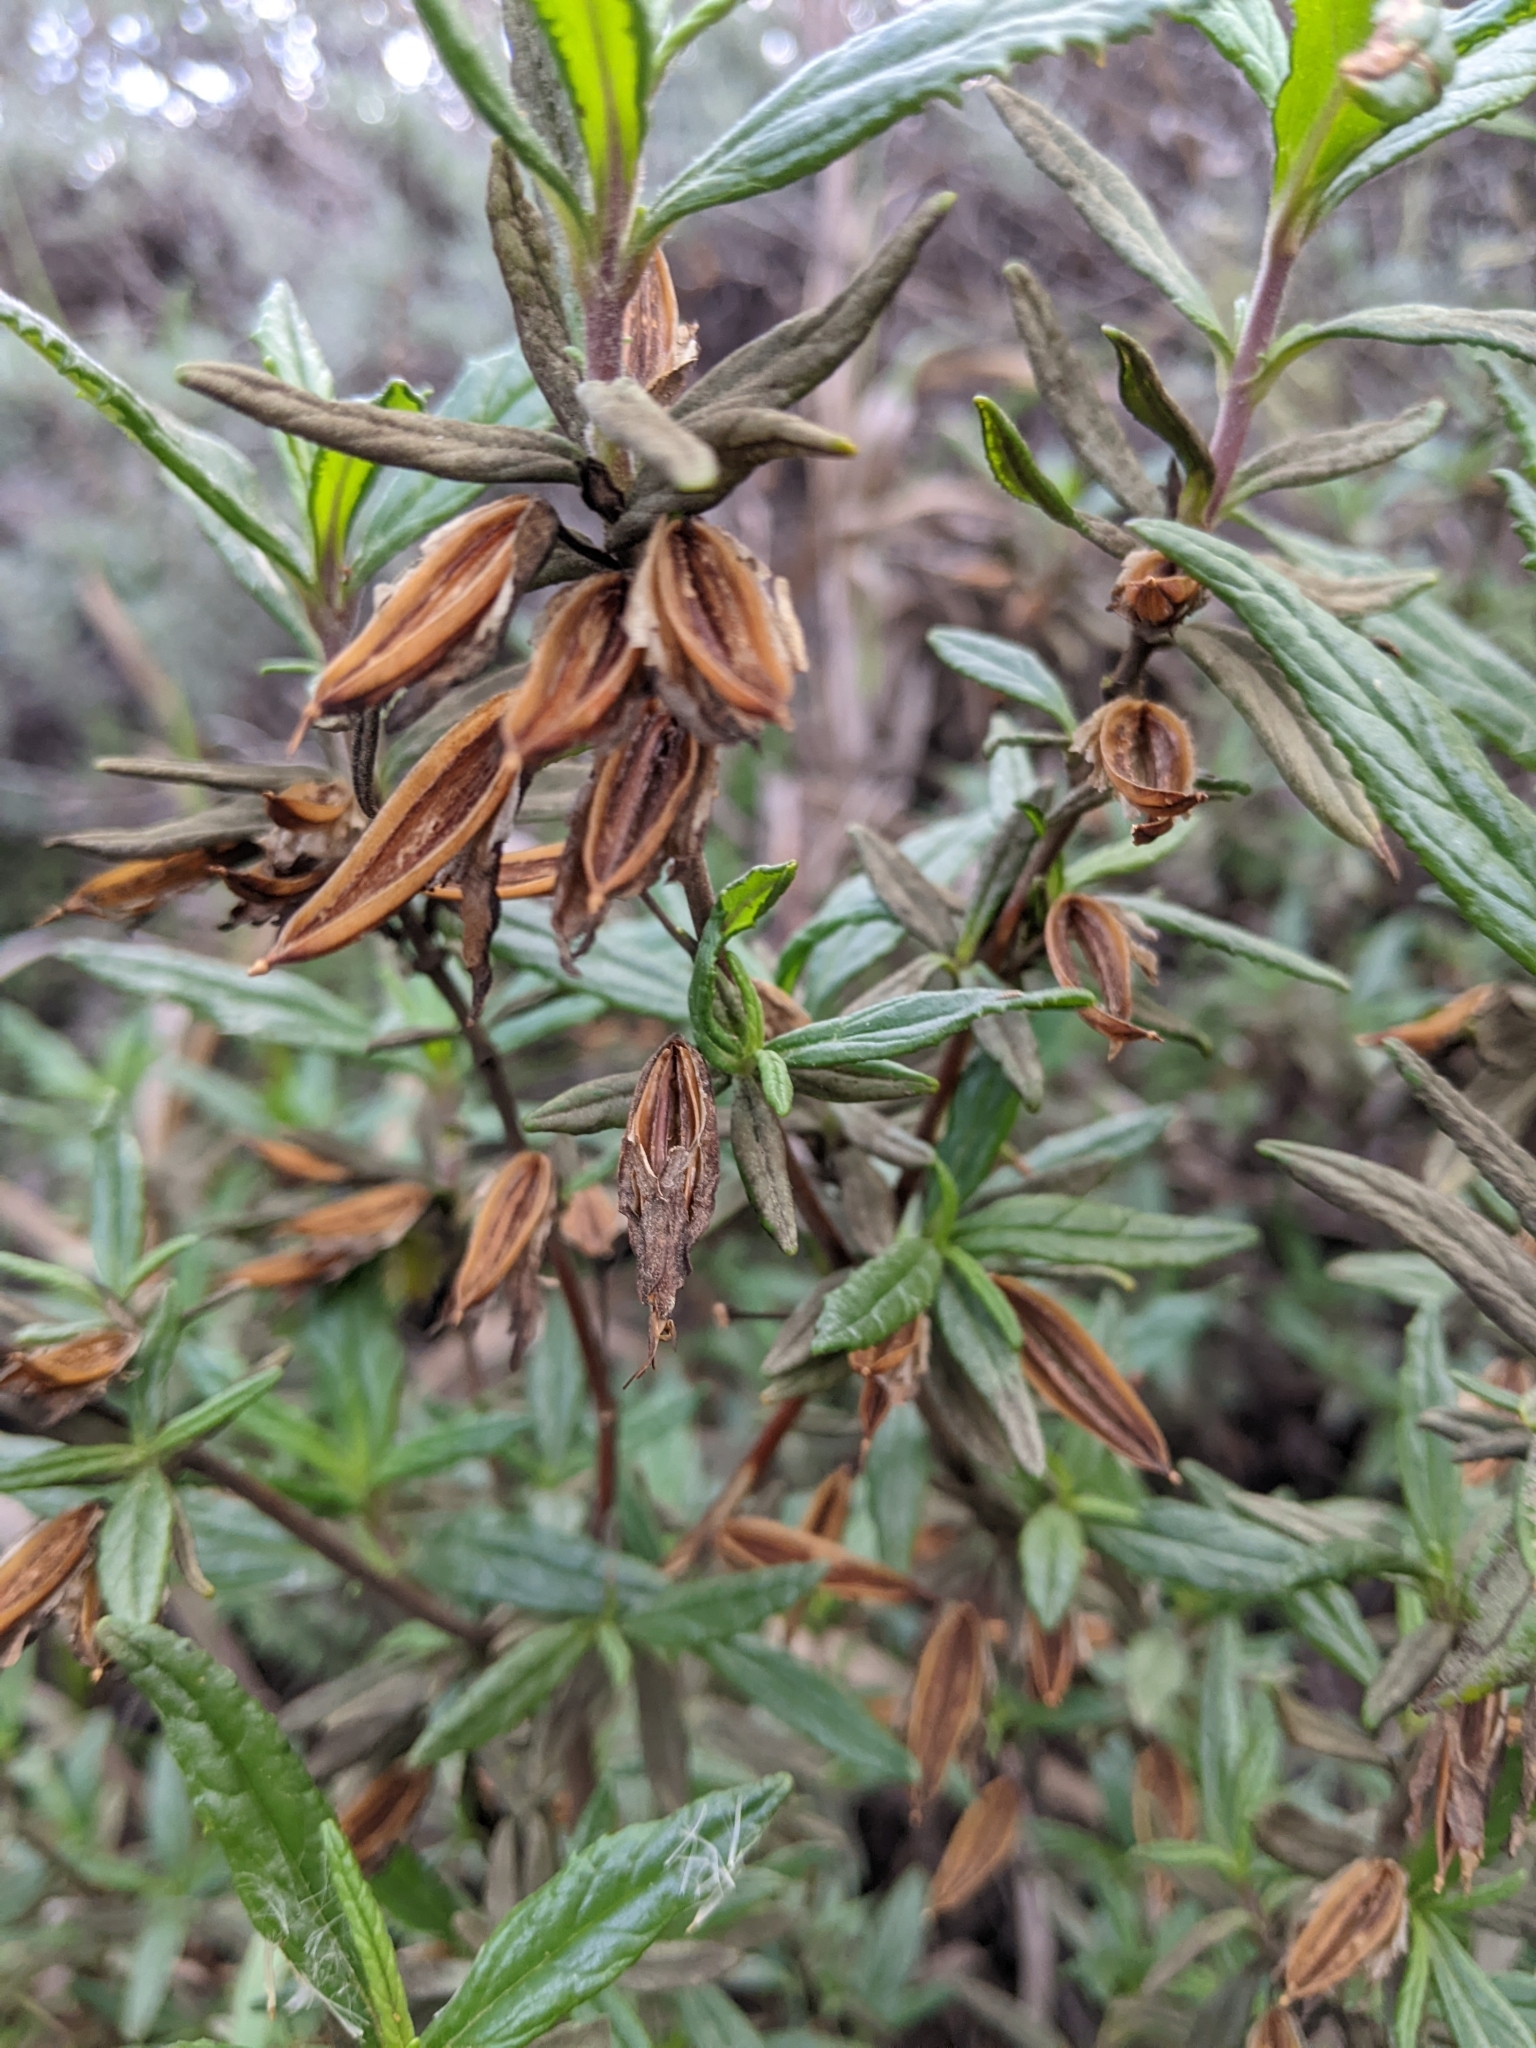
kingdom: Plantae
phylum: Tracheophyta
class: Magnoliopsida
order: Lamiales
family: Phrymaceae
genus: Diplacus
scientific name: Diplacus aurantiacus
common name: Bush monkey-flower
